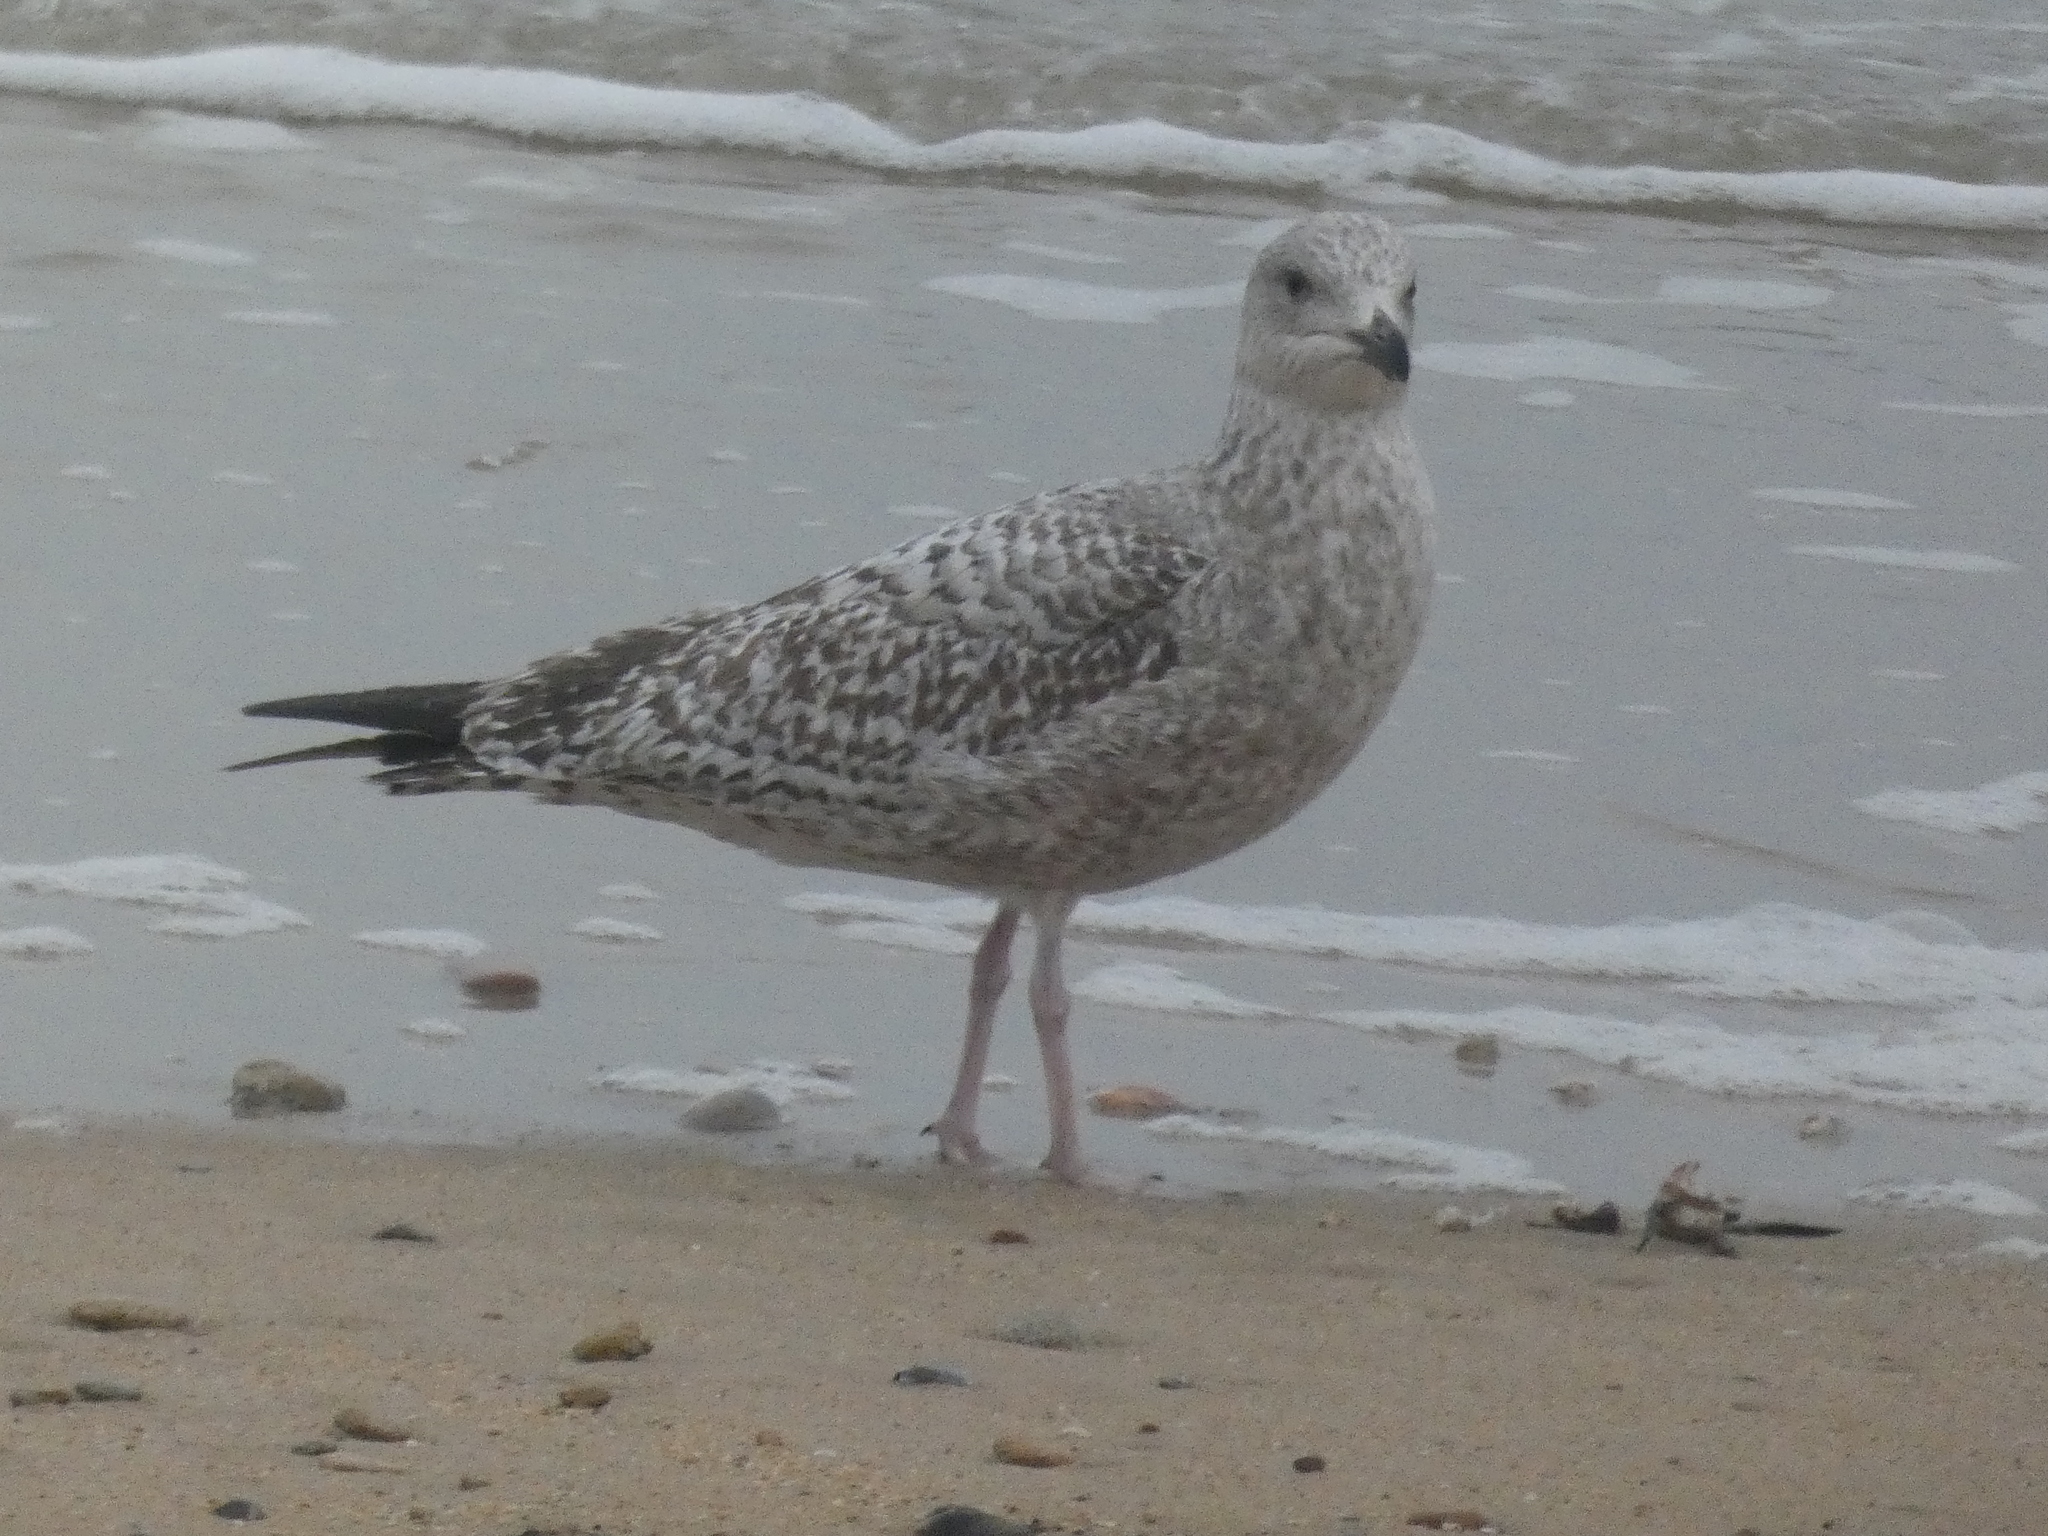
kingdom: Animalia
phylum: Chordata
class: Aves
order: Charadriiformes
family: Laridae
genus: Larus
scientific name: Larus argentatus
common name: Herring gull
